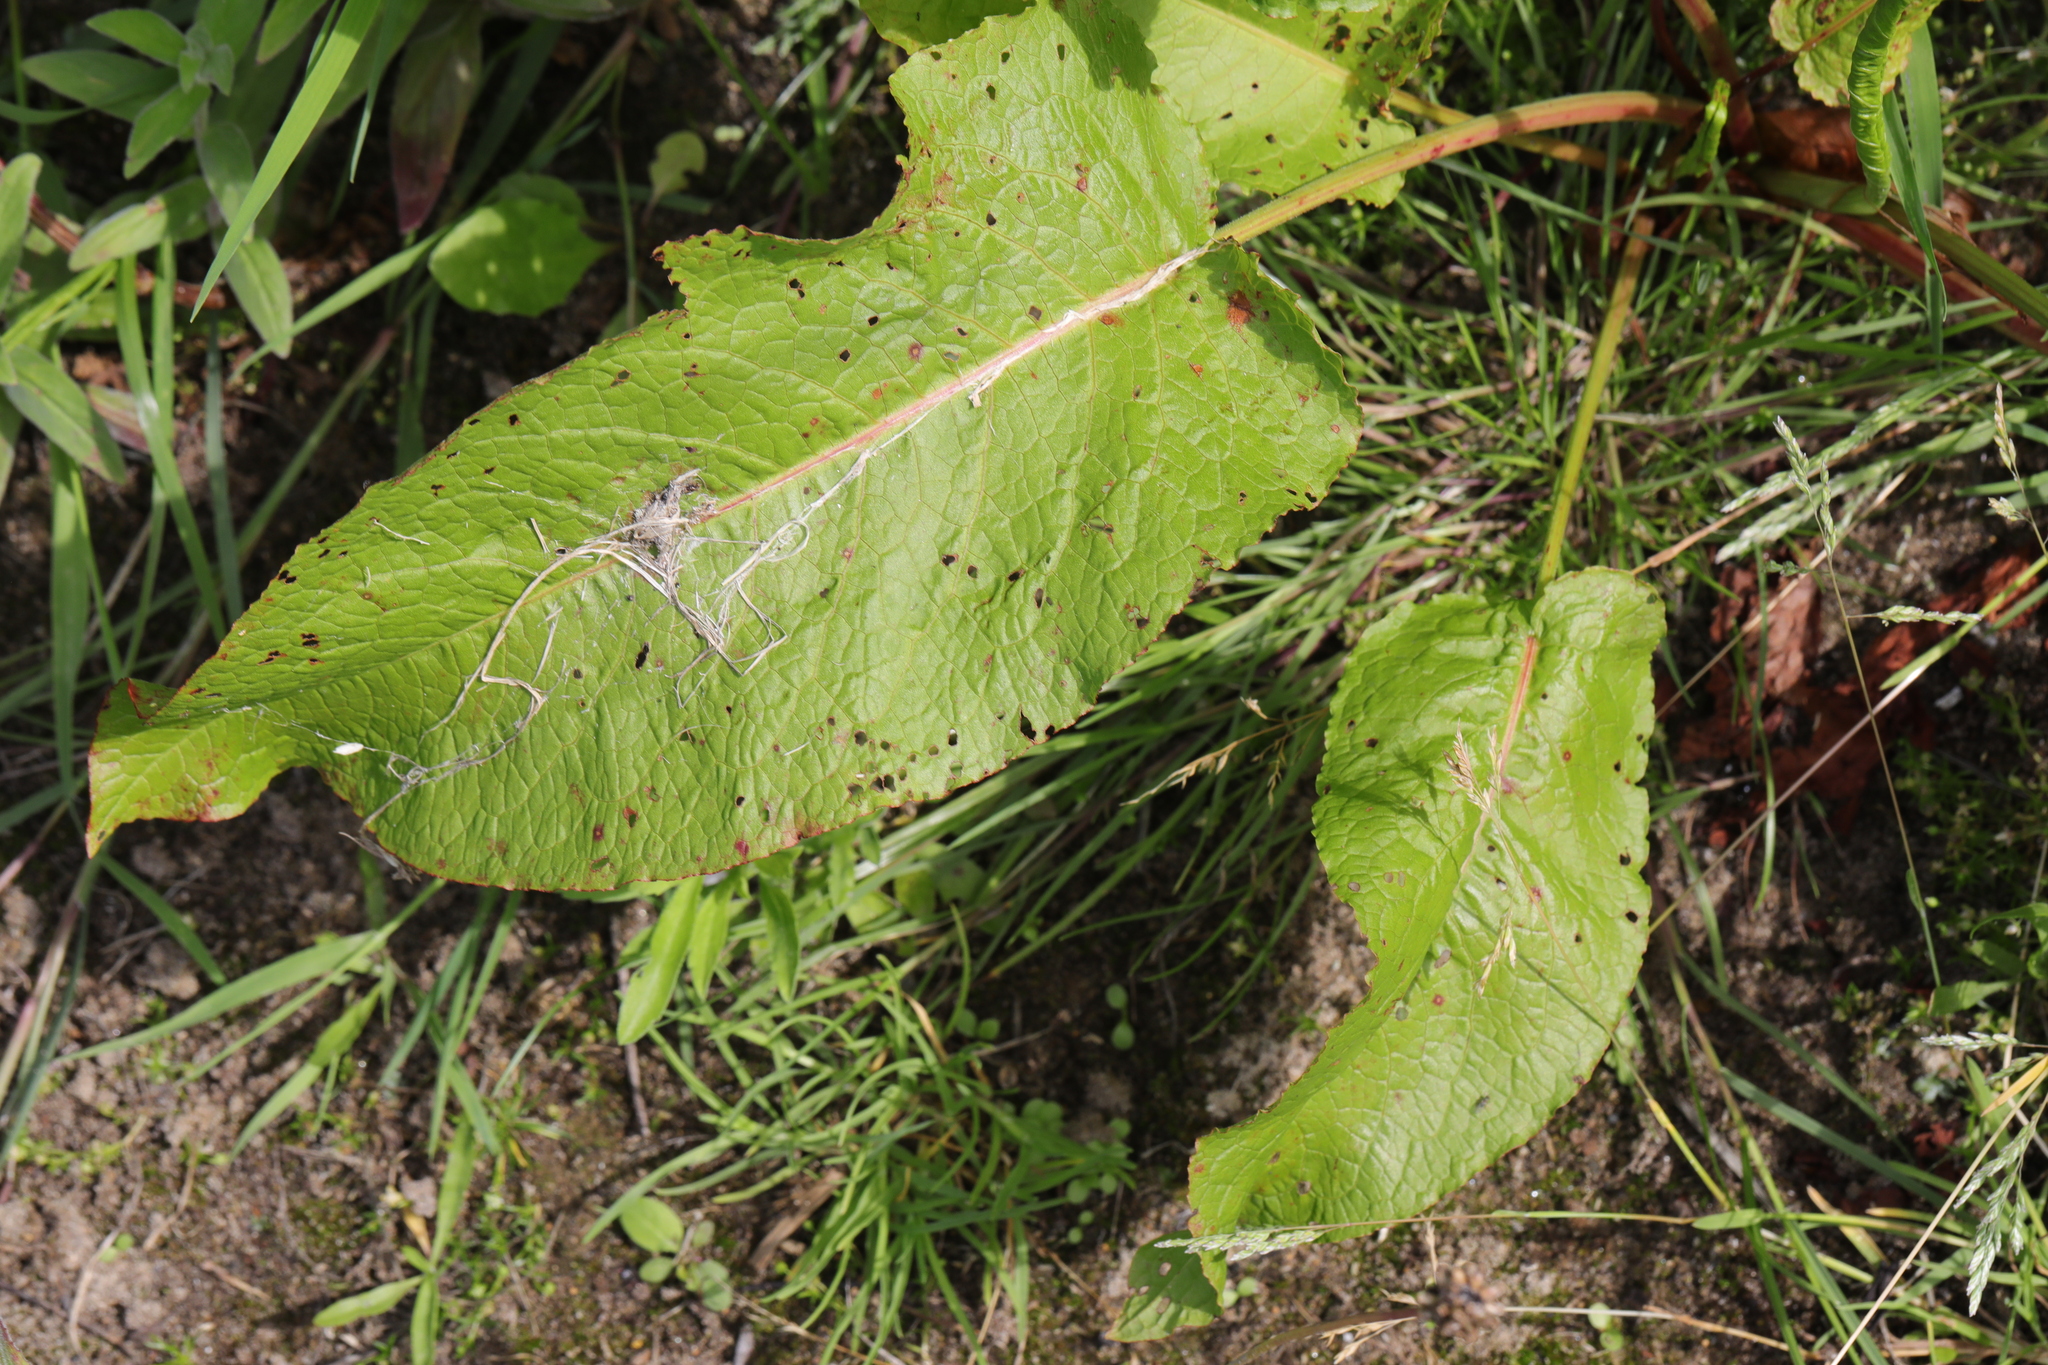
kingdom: Plantae
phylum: Tracheophyta
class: Magnoliopsida
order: Caryophyllales
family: Polygonaceae
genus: Rumex
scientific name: Rumex obtusifolius
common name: Bitter dock
